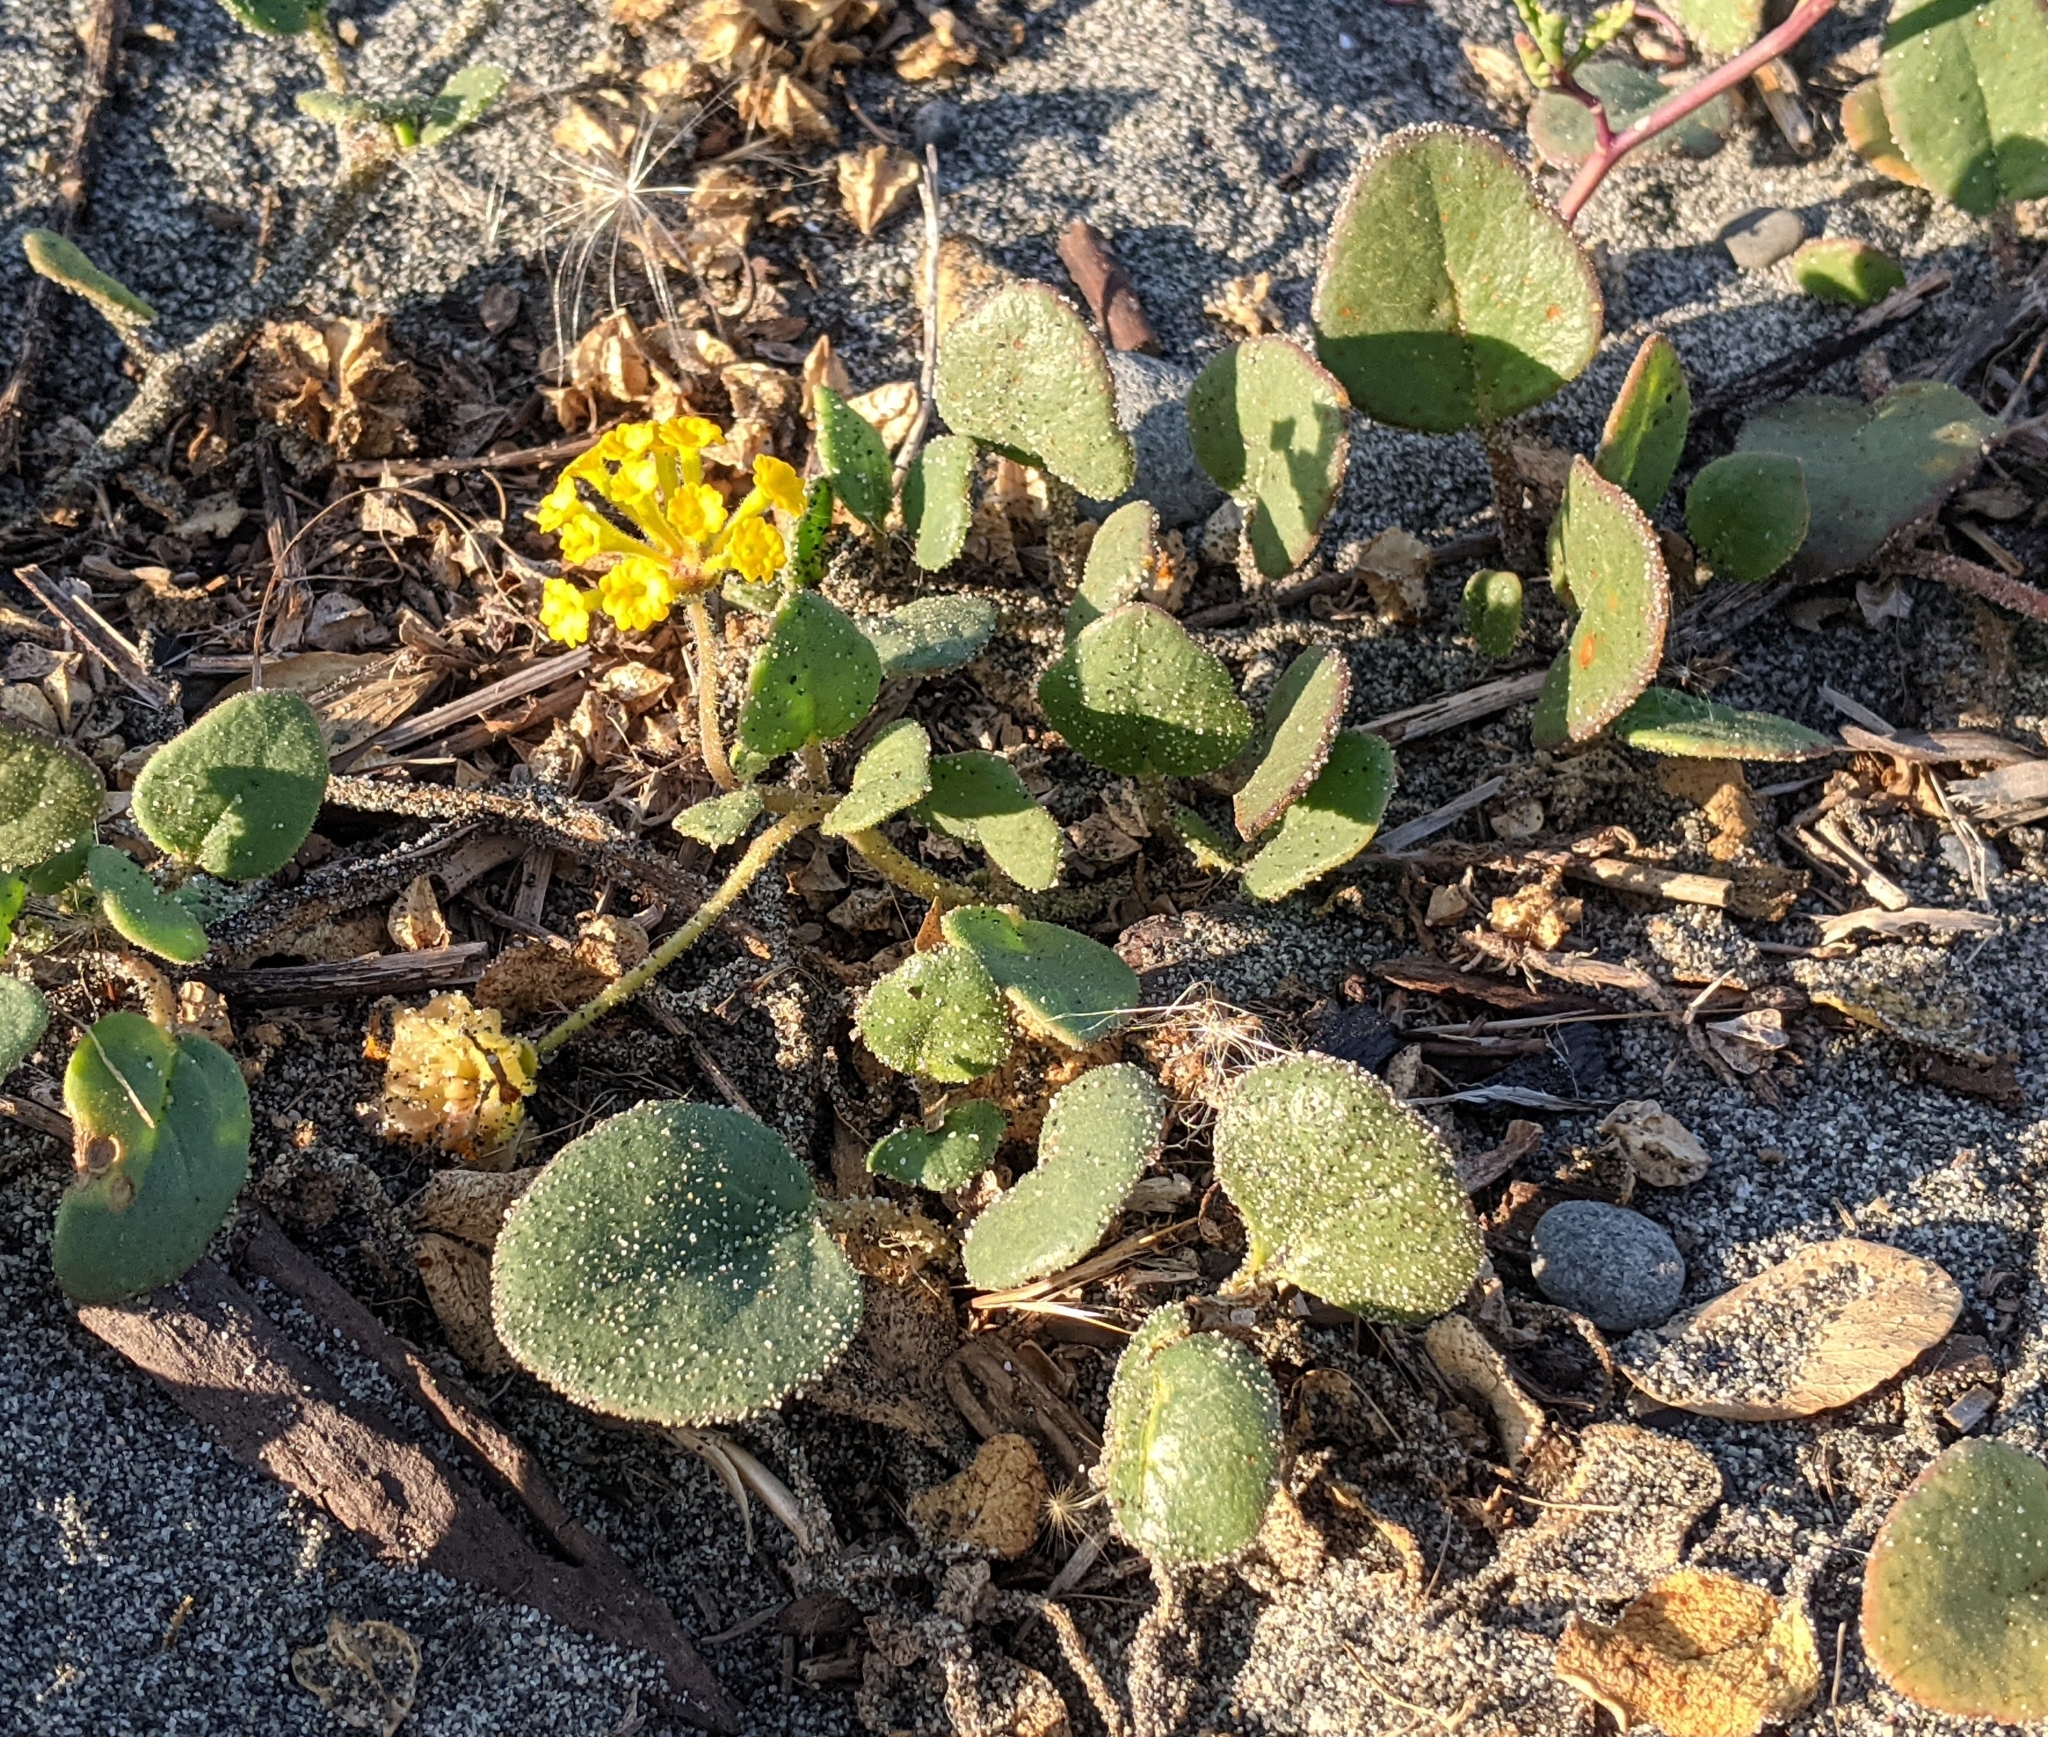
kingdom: Plantae
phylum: Tracheophyta
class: Magnoliopsida
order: Caryophyllales
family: Nyctaginaceae
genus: Abronia
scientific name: Abronia latifolia
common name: Yellow sand-verbena
